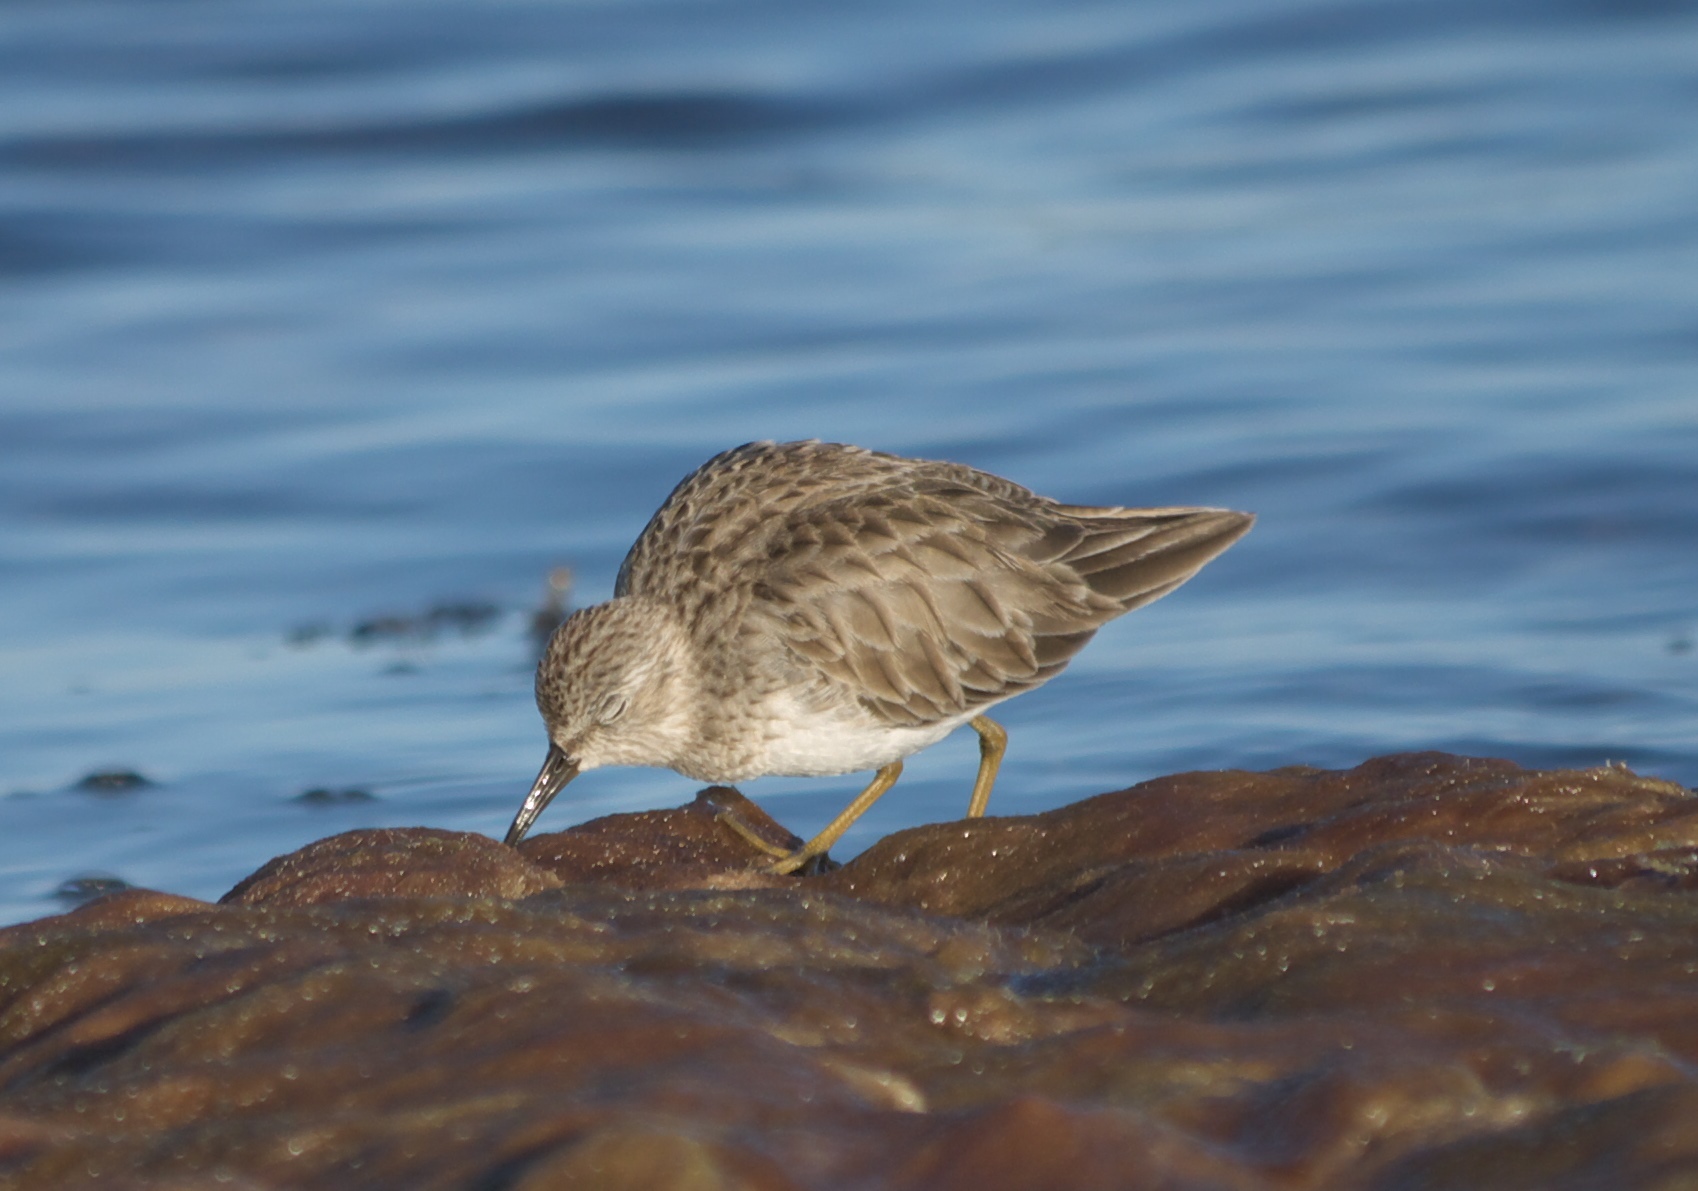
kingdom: Animalia
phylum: Chordata
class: Aves
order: Charadriiformes
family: Scolopacidae
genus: Calidris
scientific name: Calidris minutilla
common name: Least sandpiper
